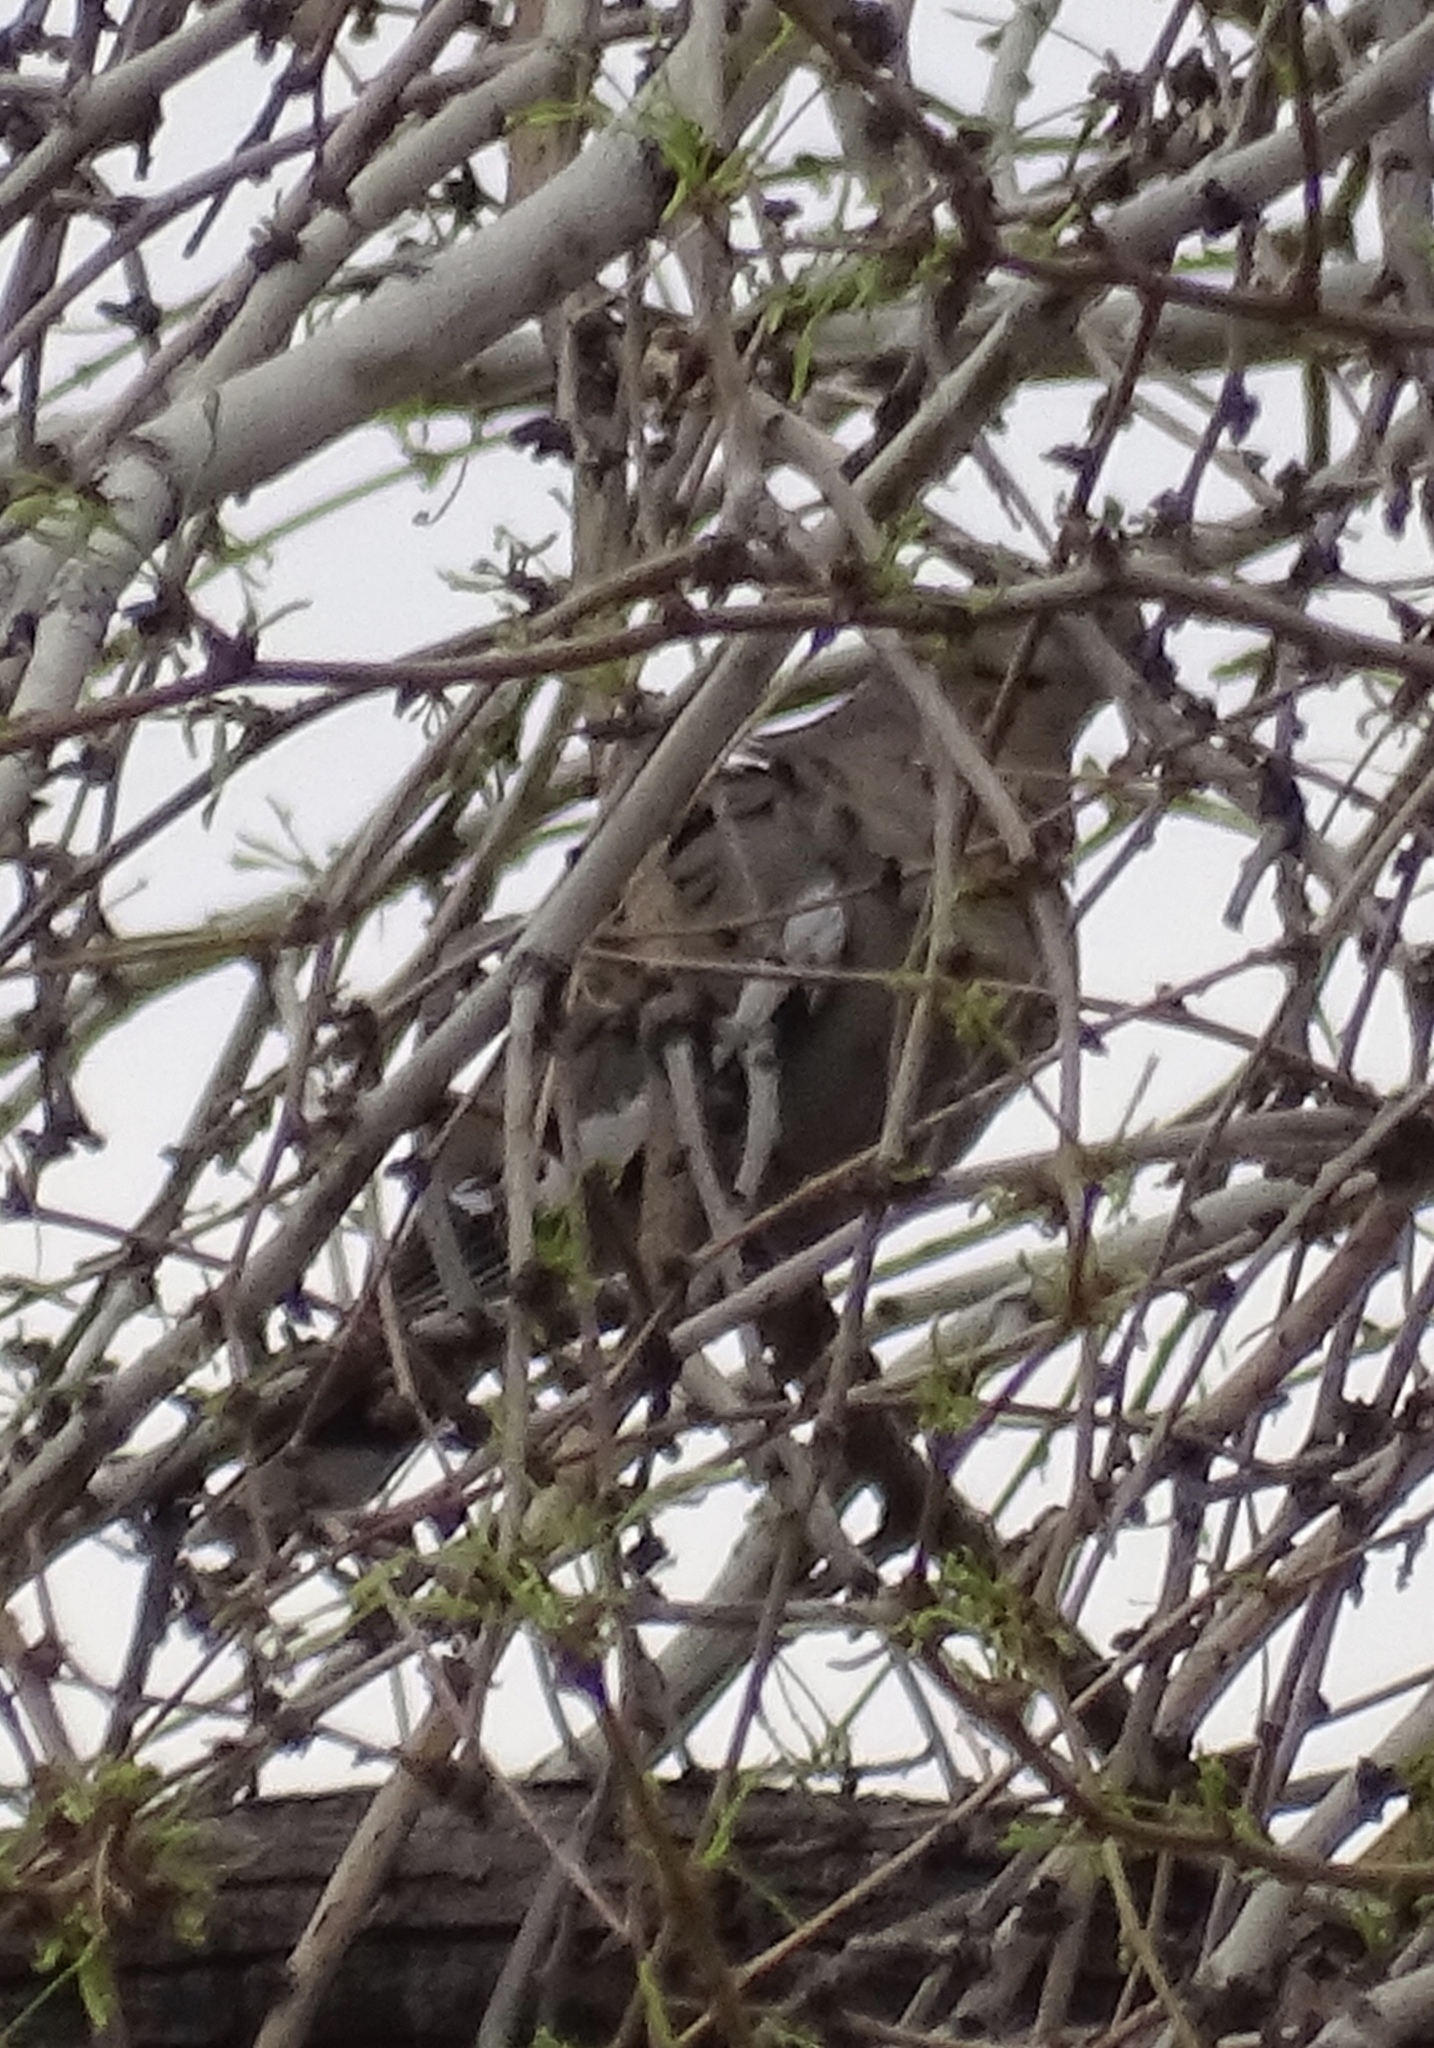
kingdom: Animalia
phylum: Chordata
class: Aves
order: Columbiformes
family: Columbidae
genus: Zenaida
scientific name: Zenaida asiatica
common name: White-winged dove
